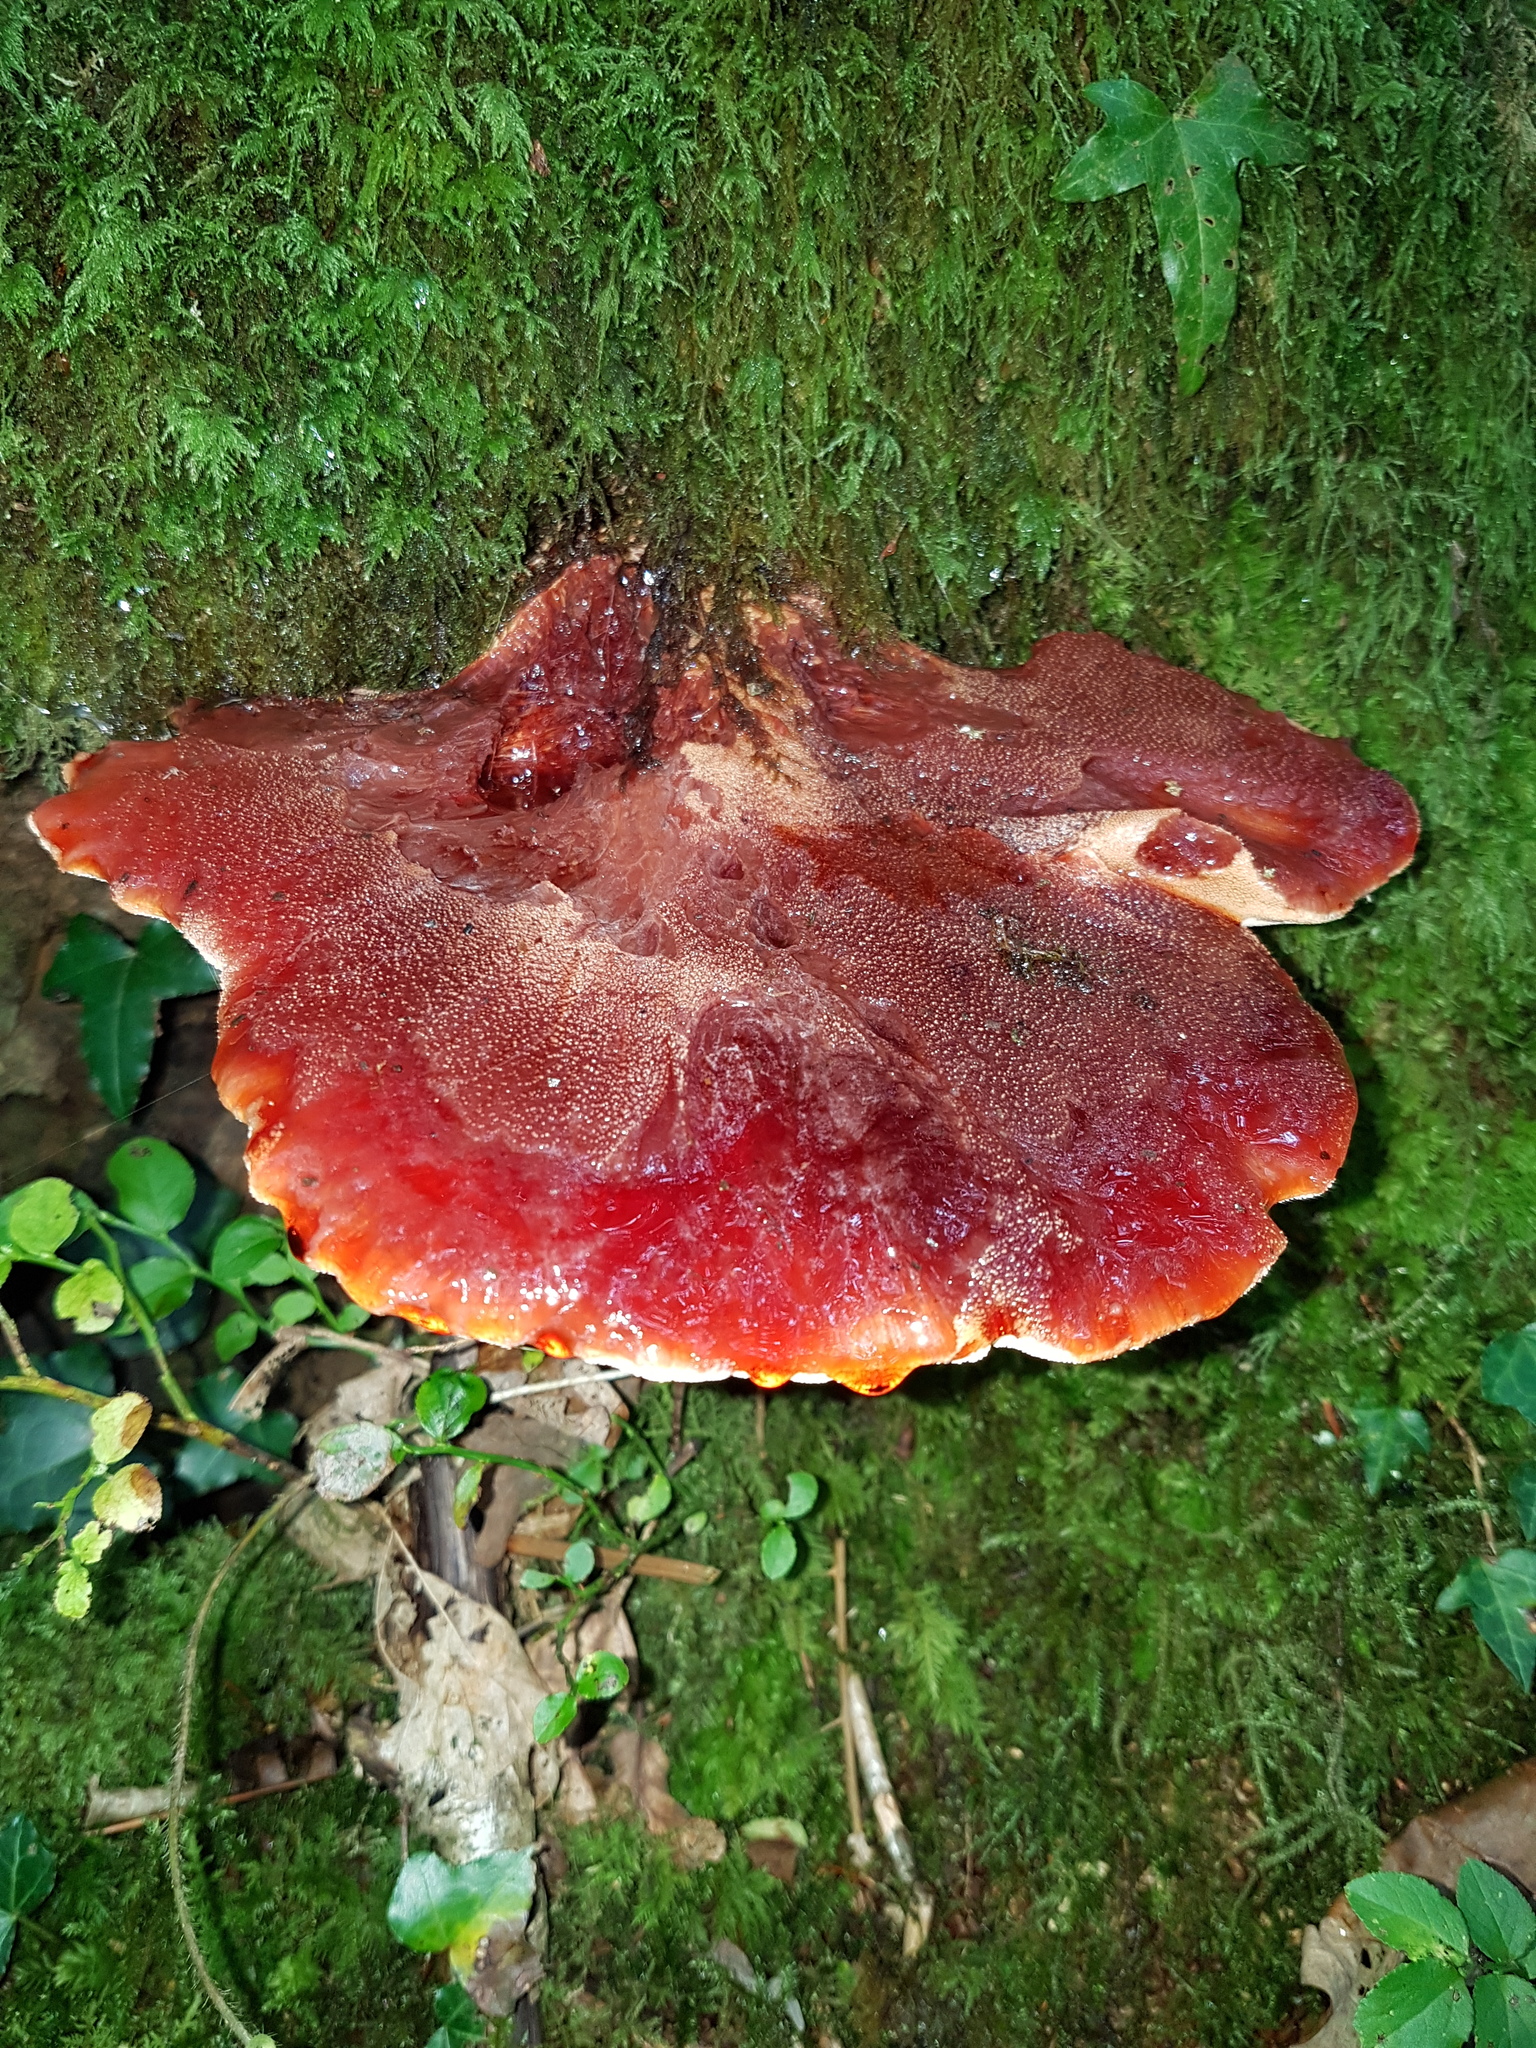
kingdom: Fungi
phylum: Basidiomycota
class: Agaricomycetes
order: Agaricales
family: Fistulinaceae
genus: Fistulina
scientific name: Fistulina hepatica
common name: Beef-steak fungus
